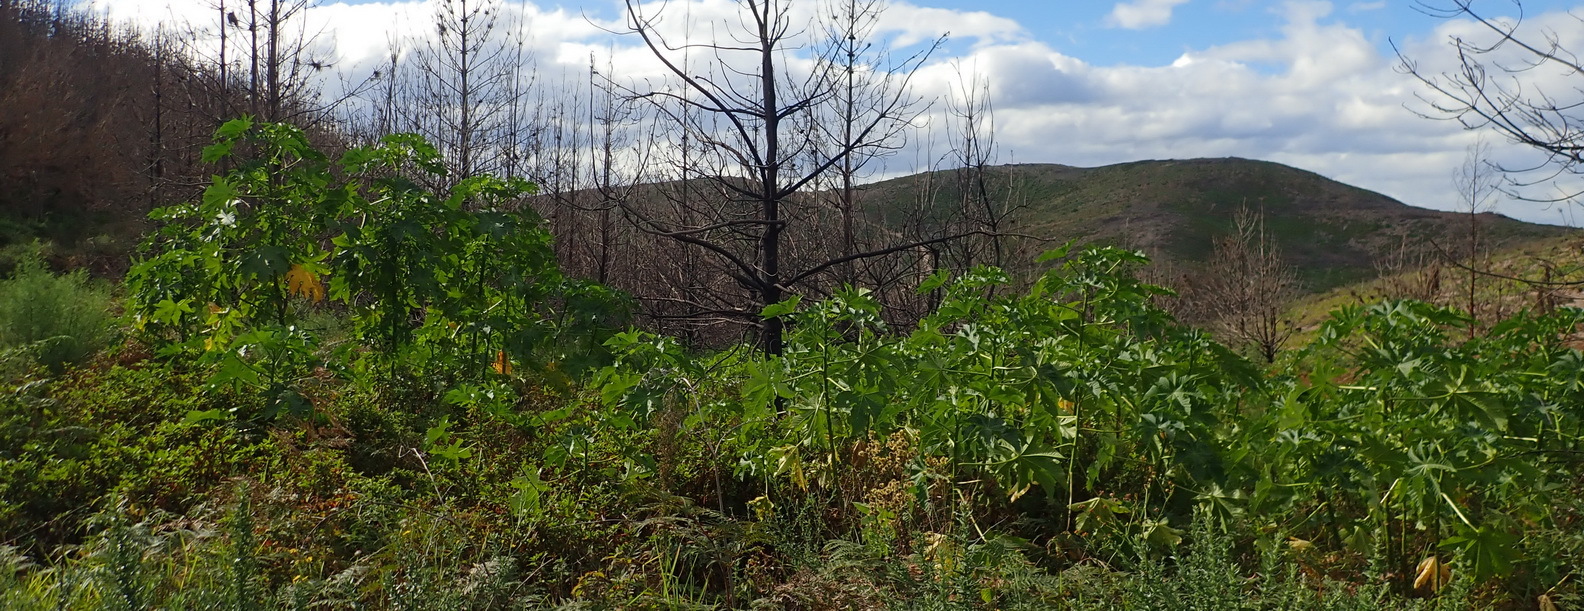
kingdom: Plantae
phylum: Tracheophyta
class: Magnoliopsida
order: Malpighiales
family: Euphorbiaceae
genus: Ricinus
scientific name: Ricinus communis
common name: Castor-oil-plant
